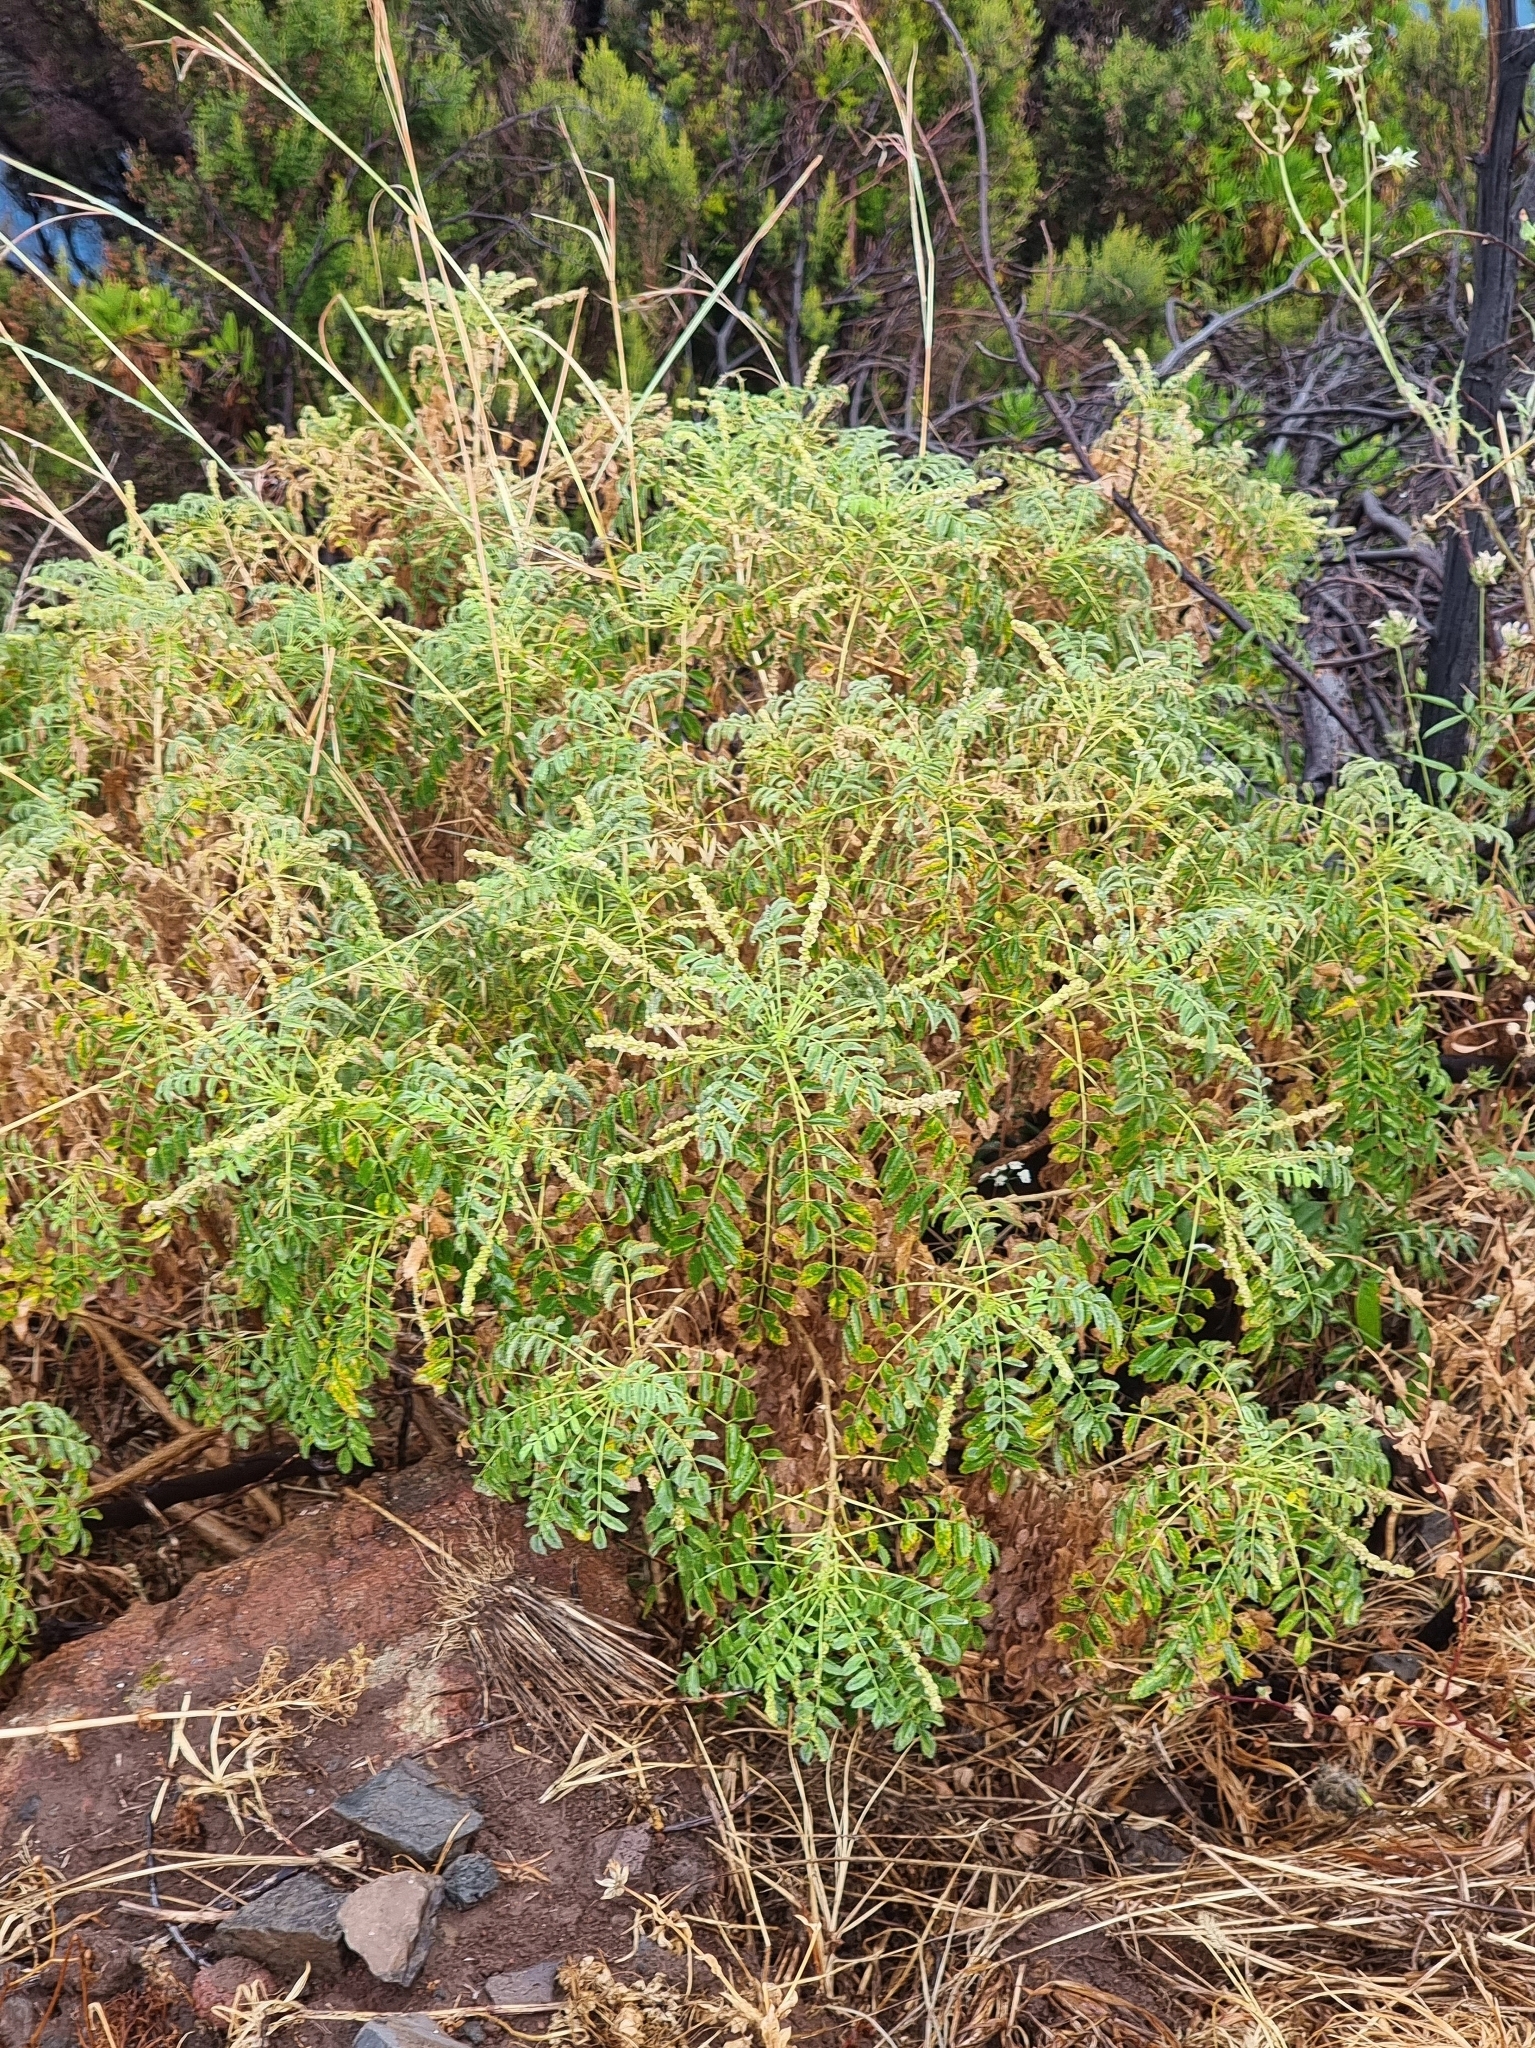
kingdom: Plantae
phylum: Tracheophyta
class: Magnoliopsida
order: Rosales
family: Rosaceae
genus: Marcetella
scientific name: Marcetella maderensis
